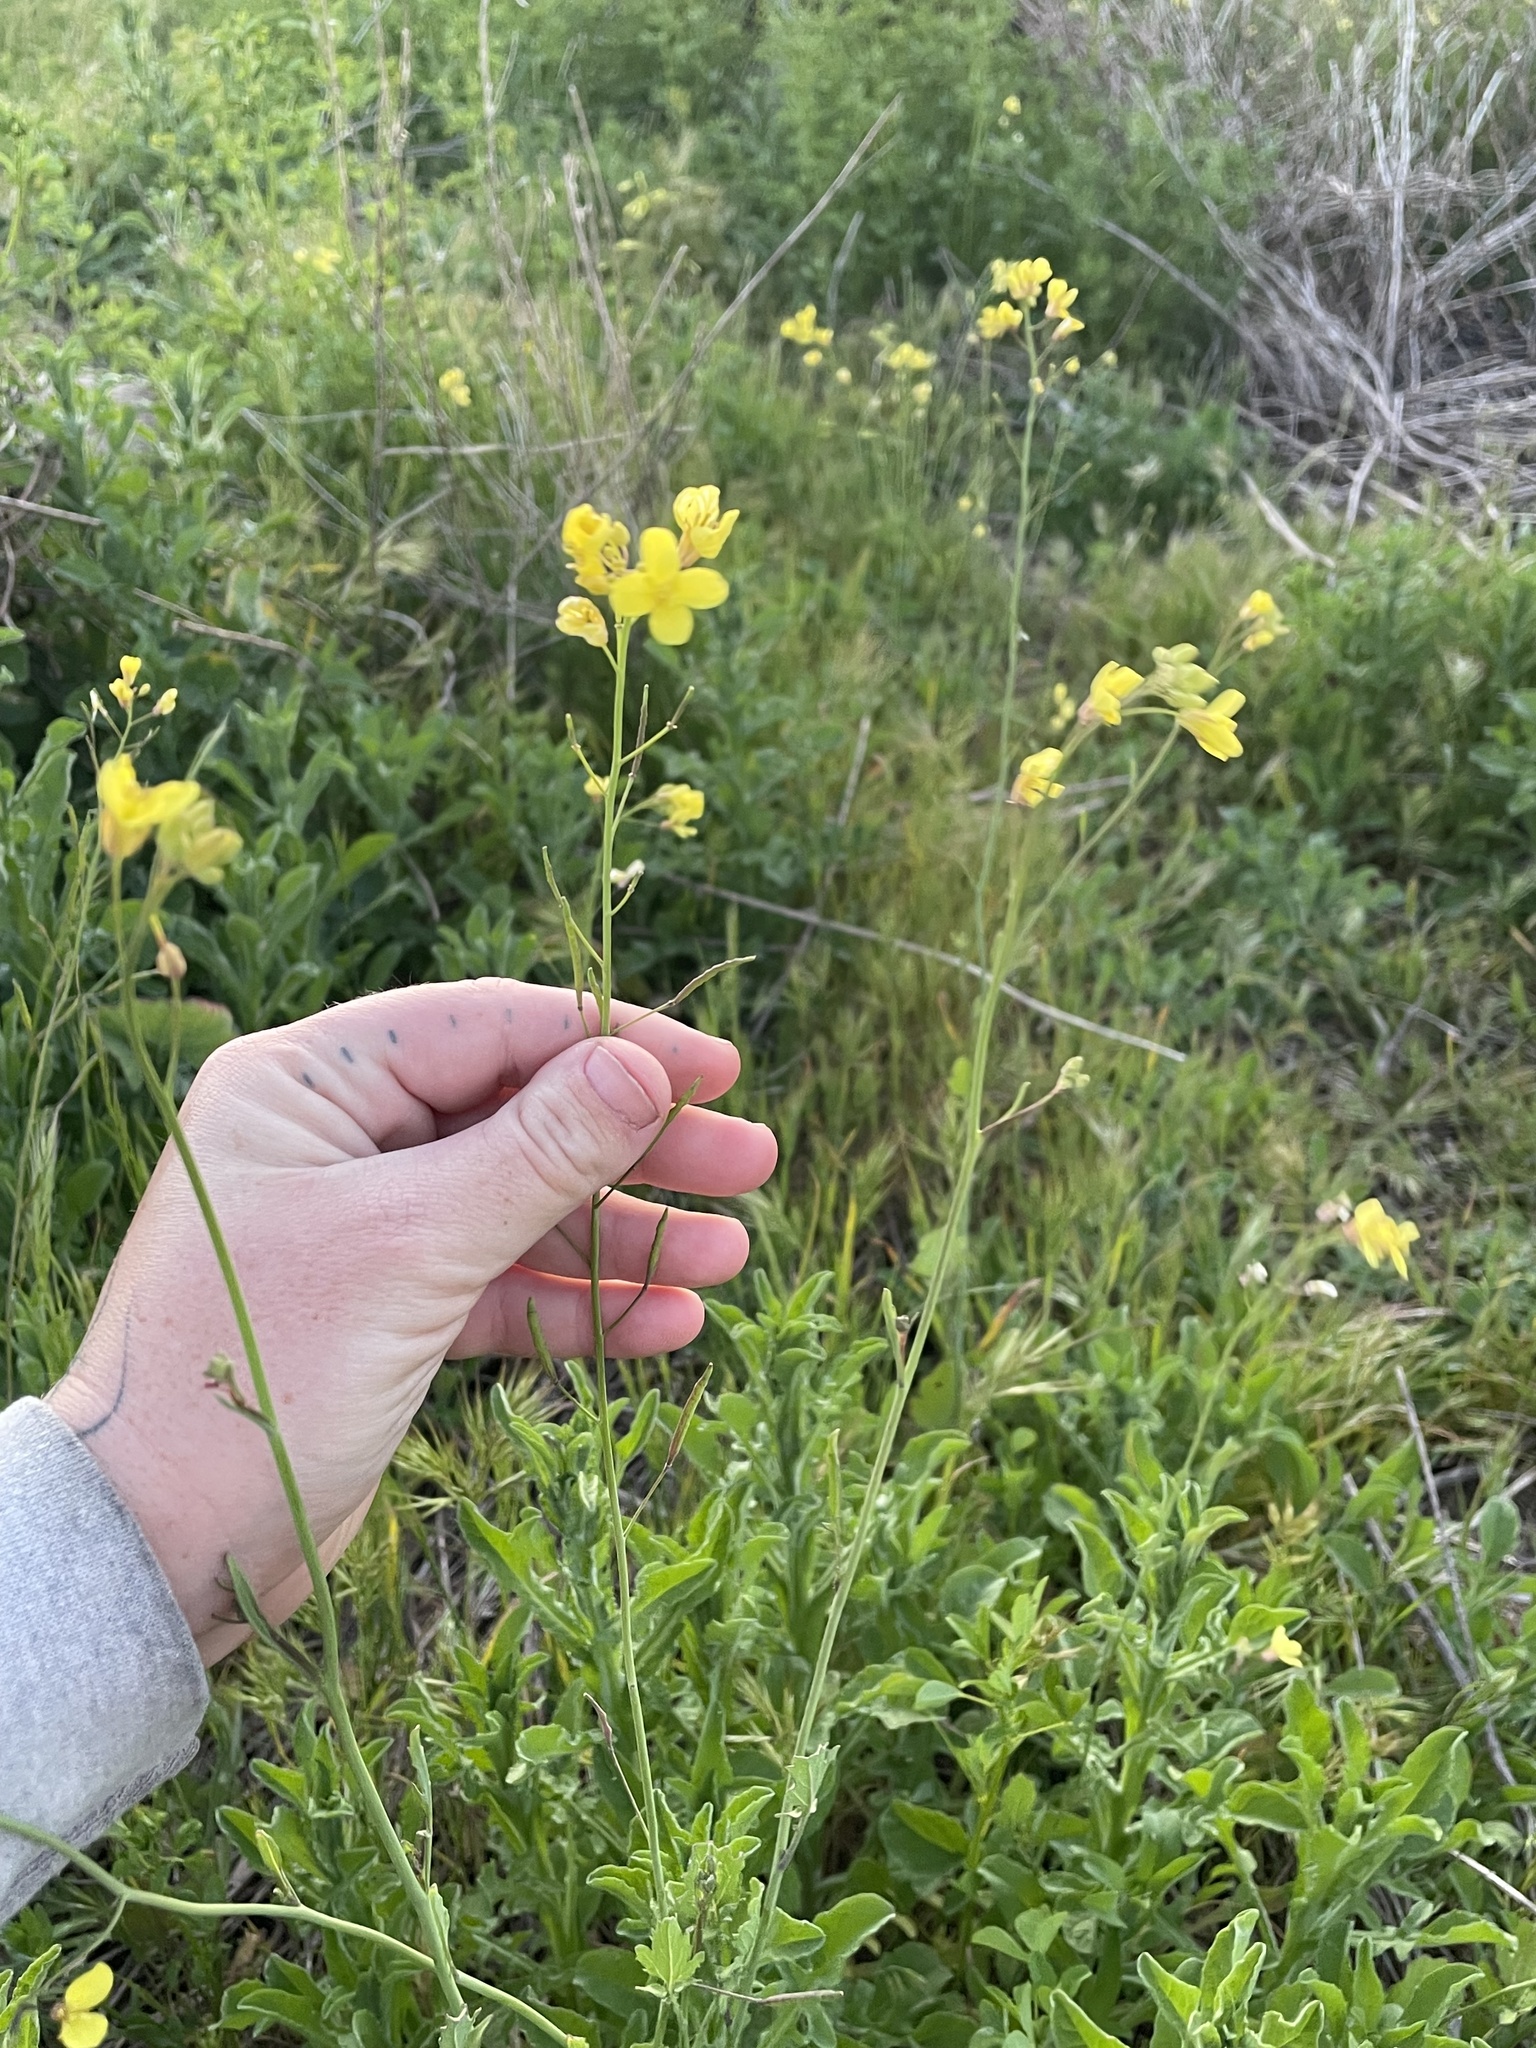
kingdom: Plantae
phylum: Tracheophyta
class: Magnoliopsida
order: Brassicales
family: Brassicaceae
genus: Brassica
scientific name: Brassica fruticulosa
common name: Twiggy turnip
